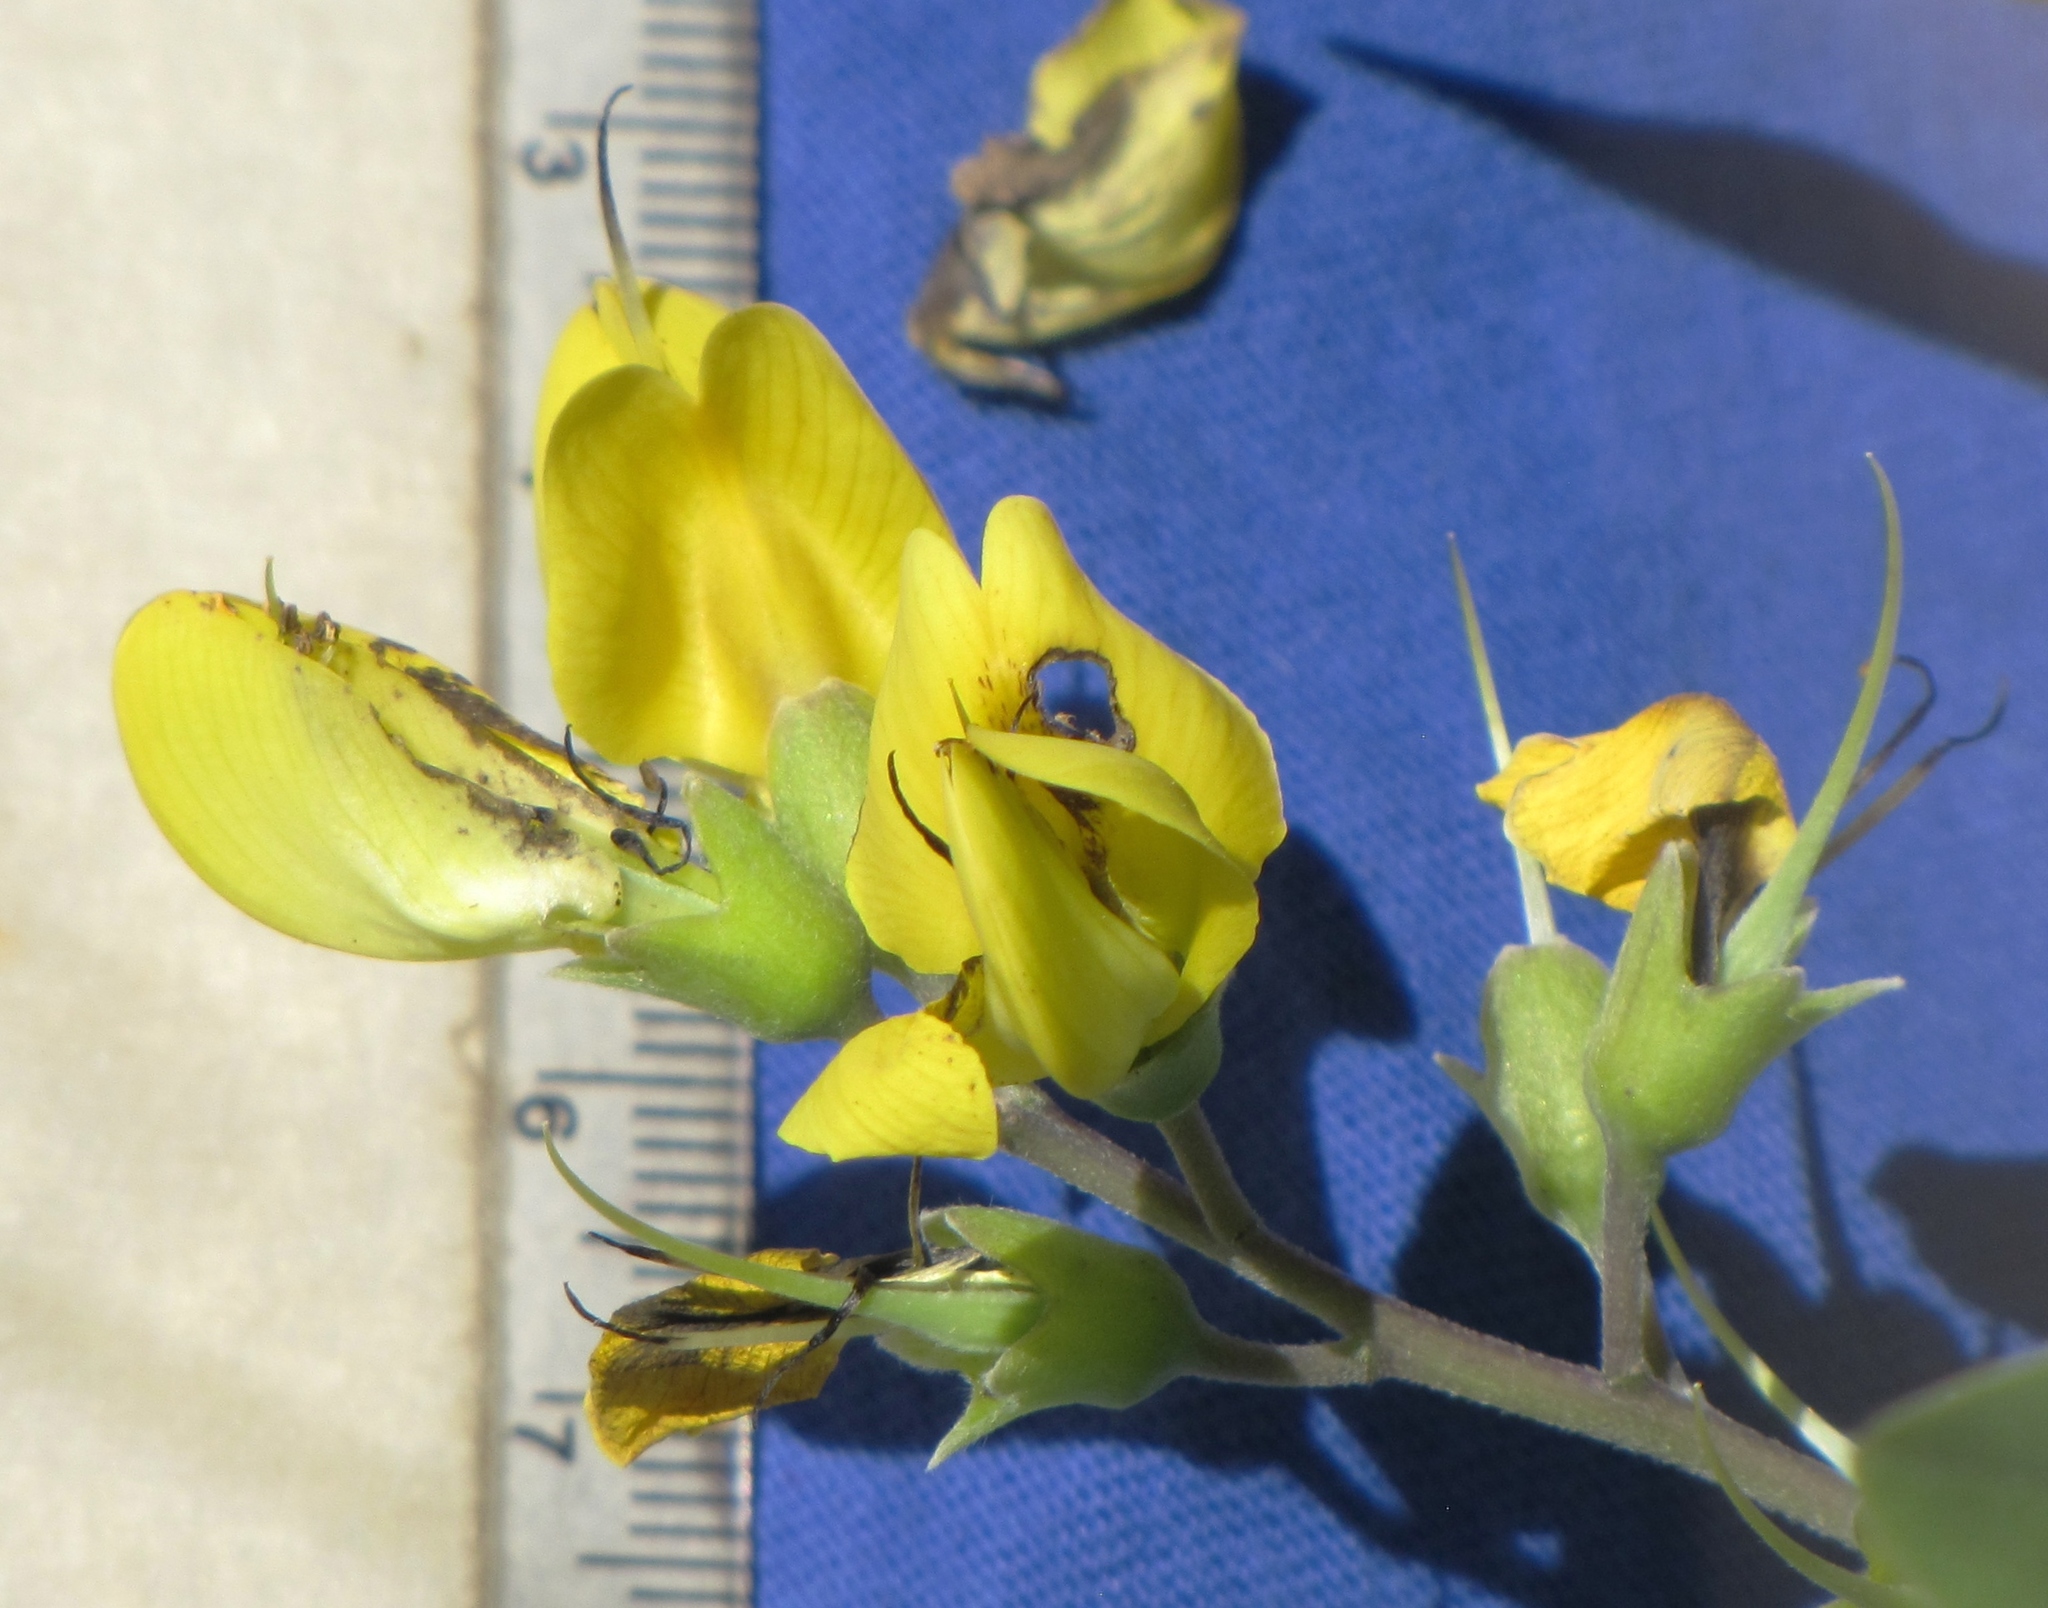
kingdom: Plantae
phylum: Tracheophyta
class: Magnoliopsida
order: Fabales
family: Fabaceae
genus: Baptisia
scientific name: Baptisia cinerea
